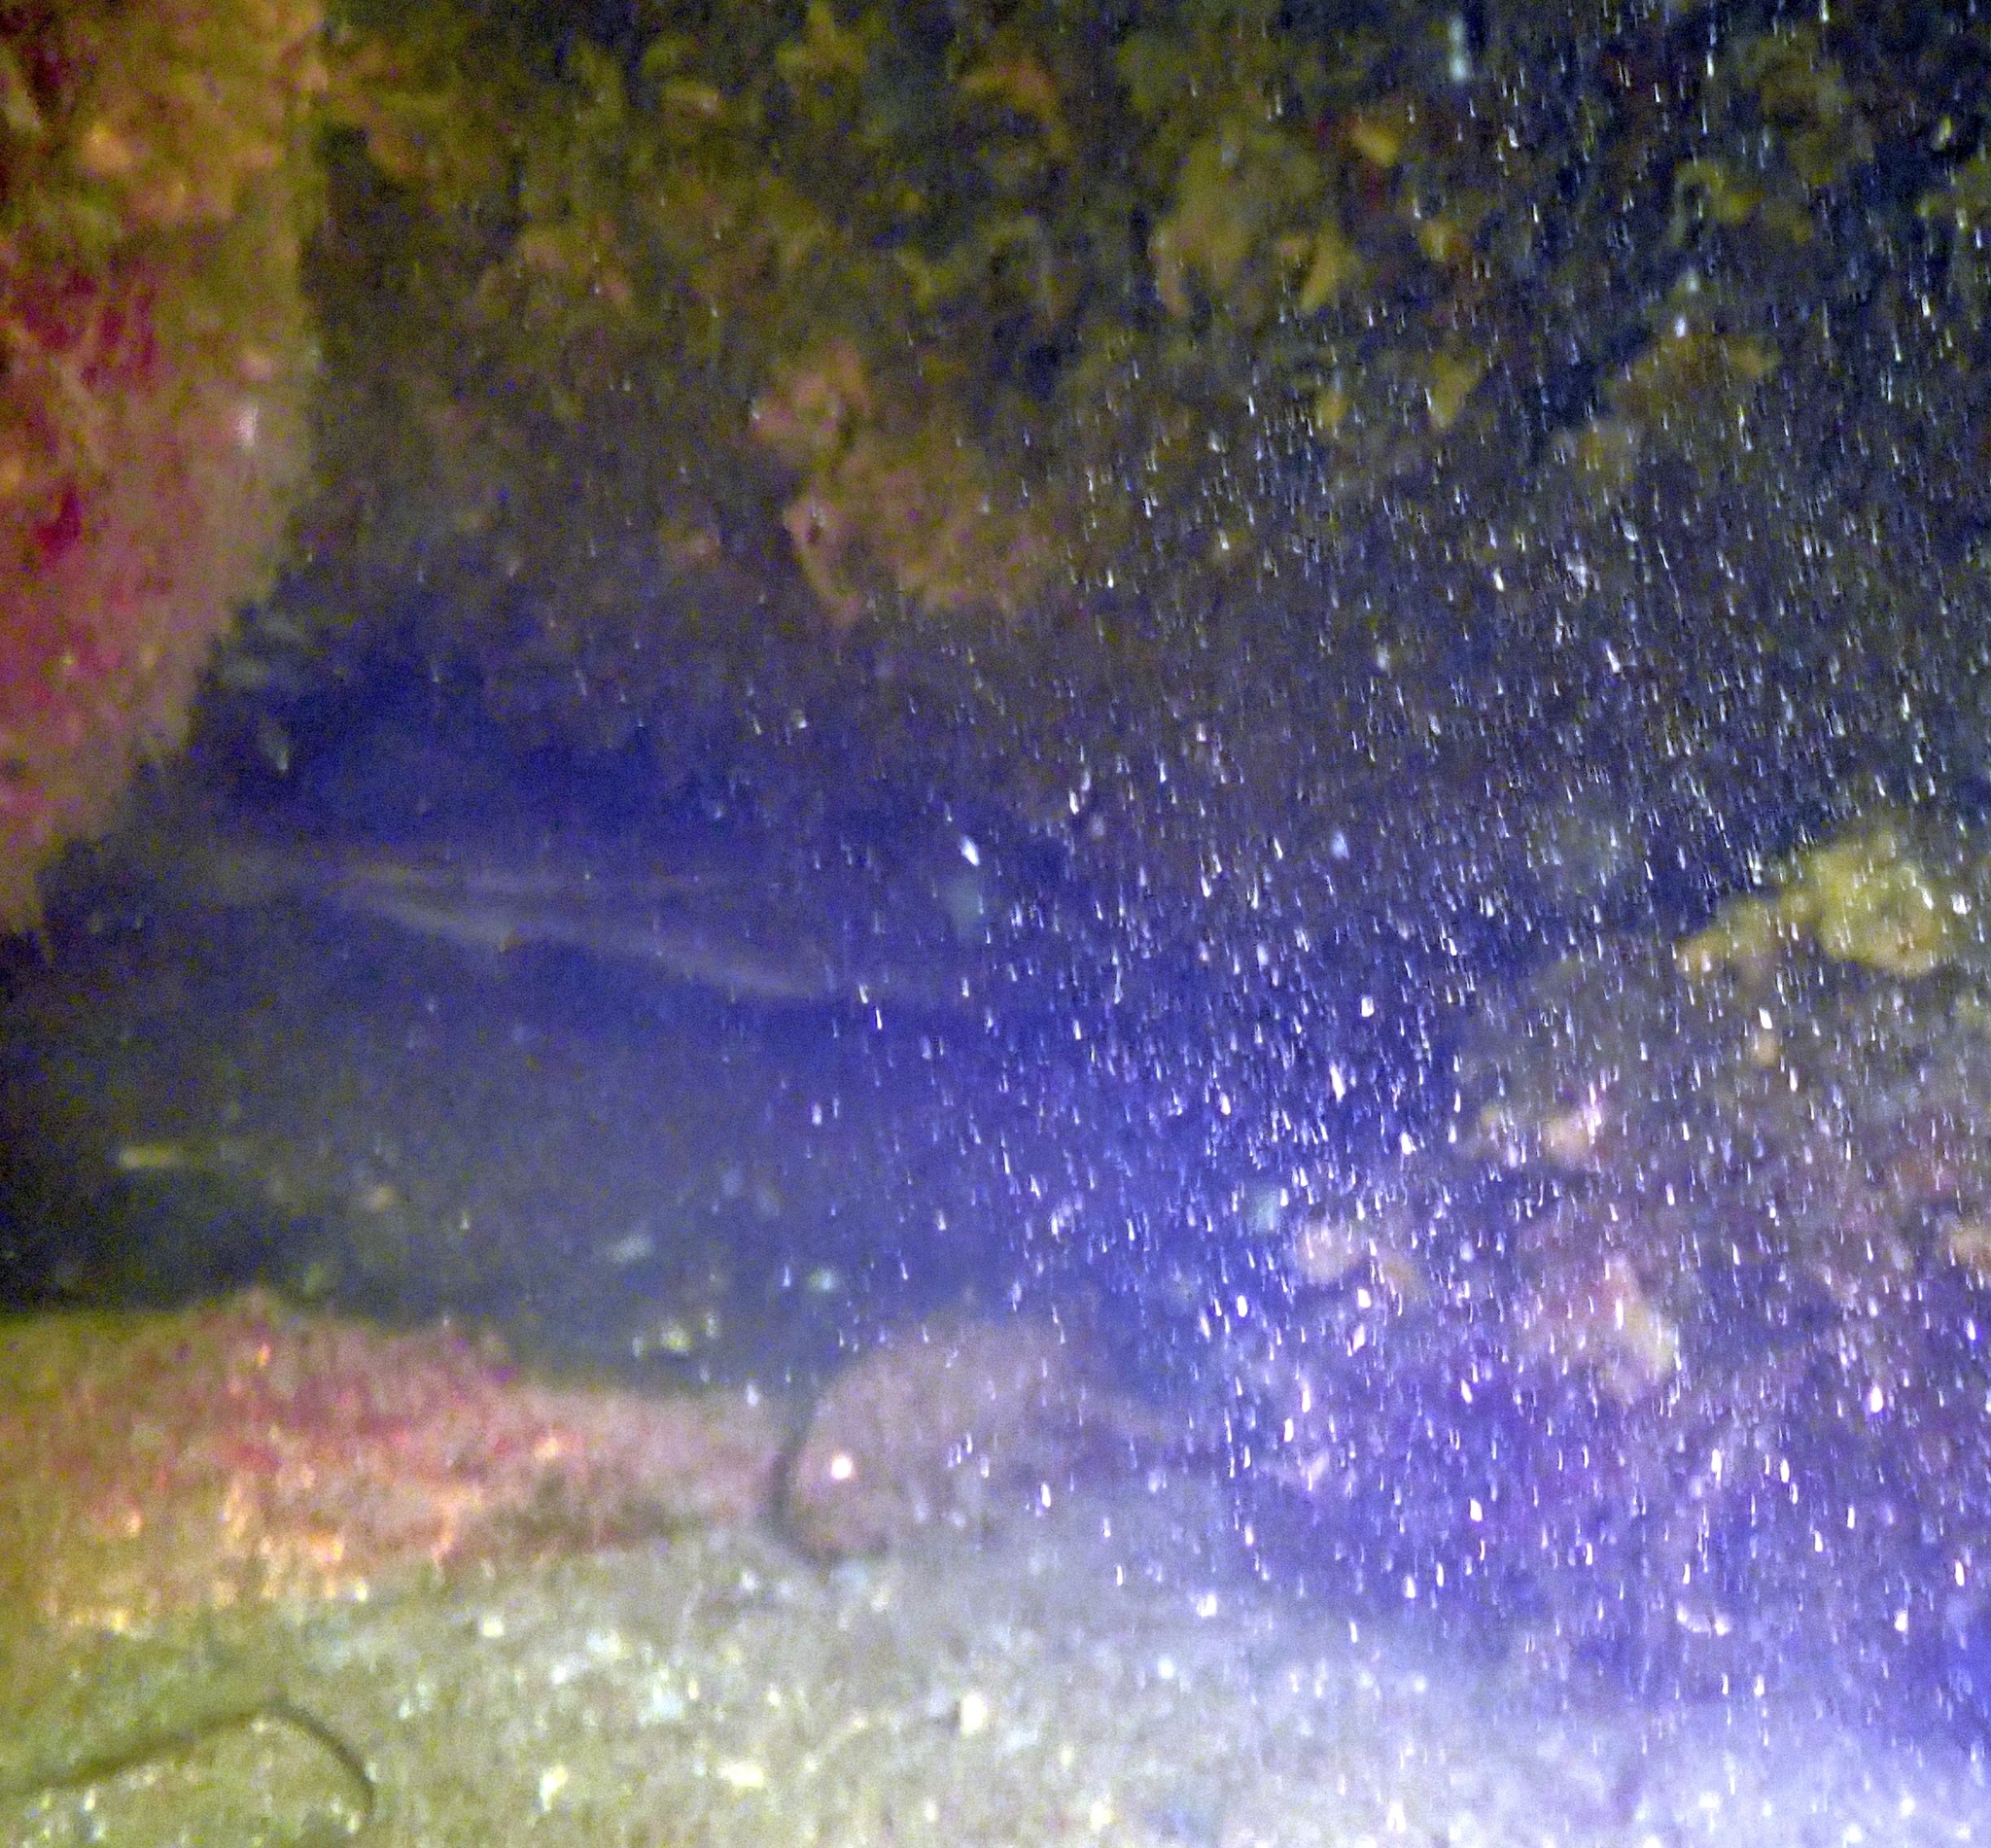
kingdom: Animalia
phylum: Chordata
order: Gadiformes
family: Gadidae
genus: Gadus
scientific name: Gadus morhua
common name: Atlantic cod
